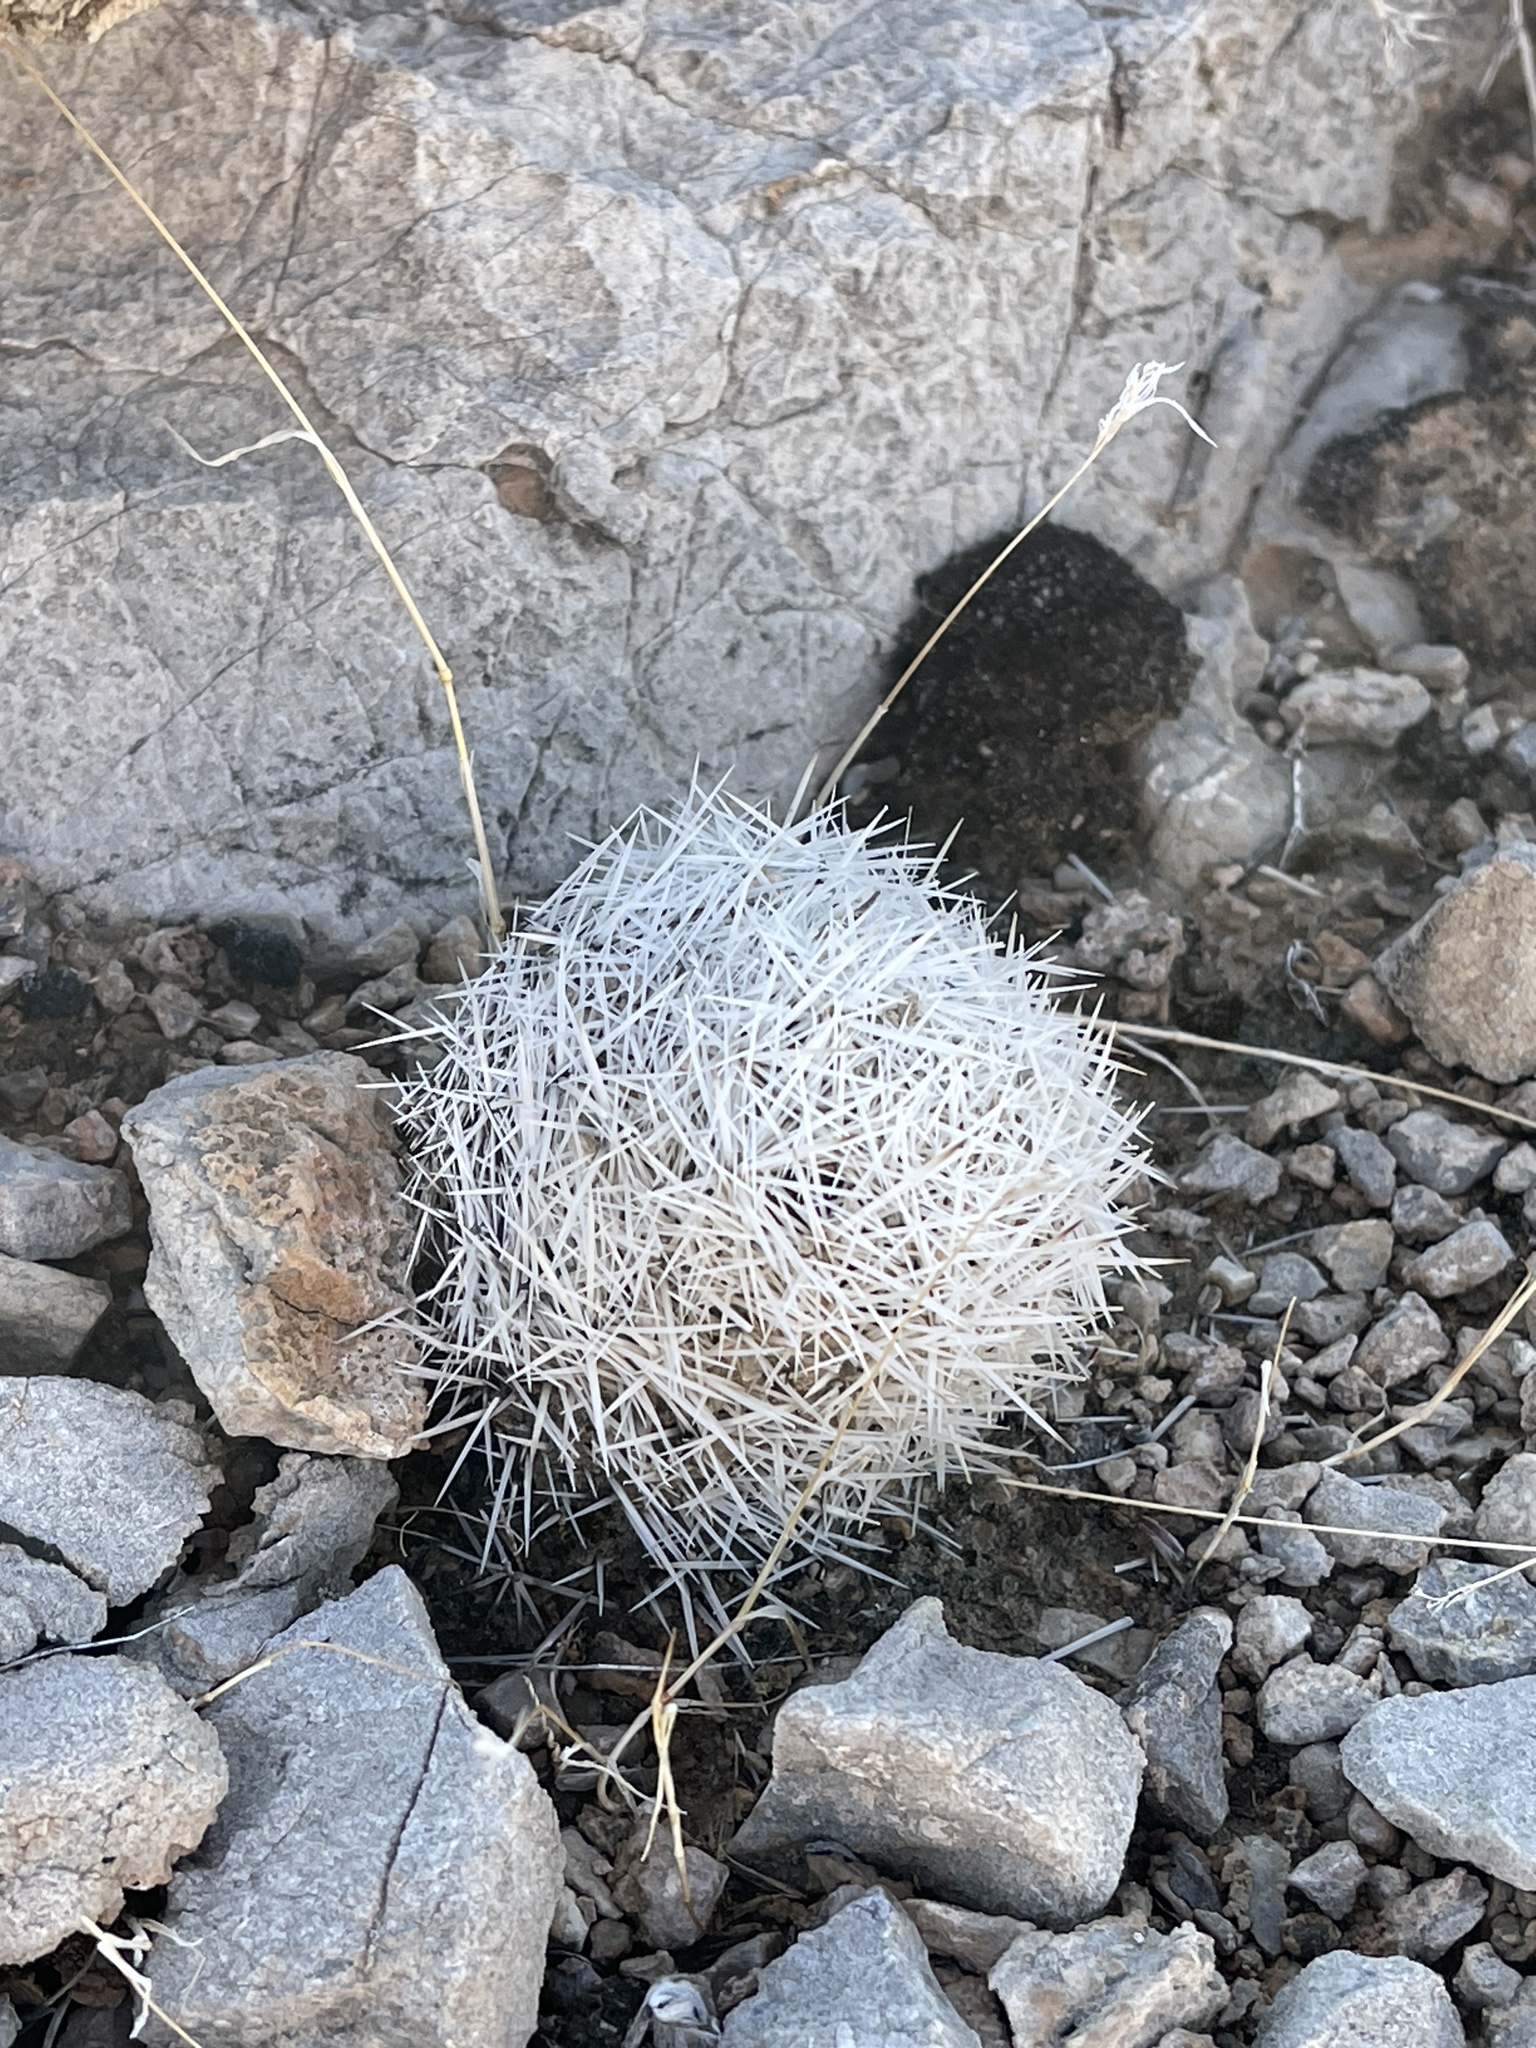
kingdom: Plantae
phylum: Tracheophyta
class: Magnoliopsida
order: Caryophyllales
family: Cactaceae
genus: Pelecyphora
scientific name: Pelecyphora dasyacantha
